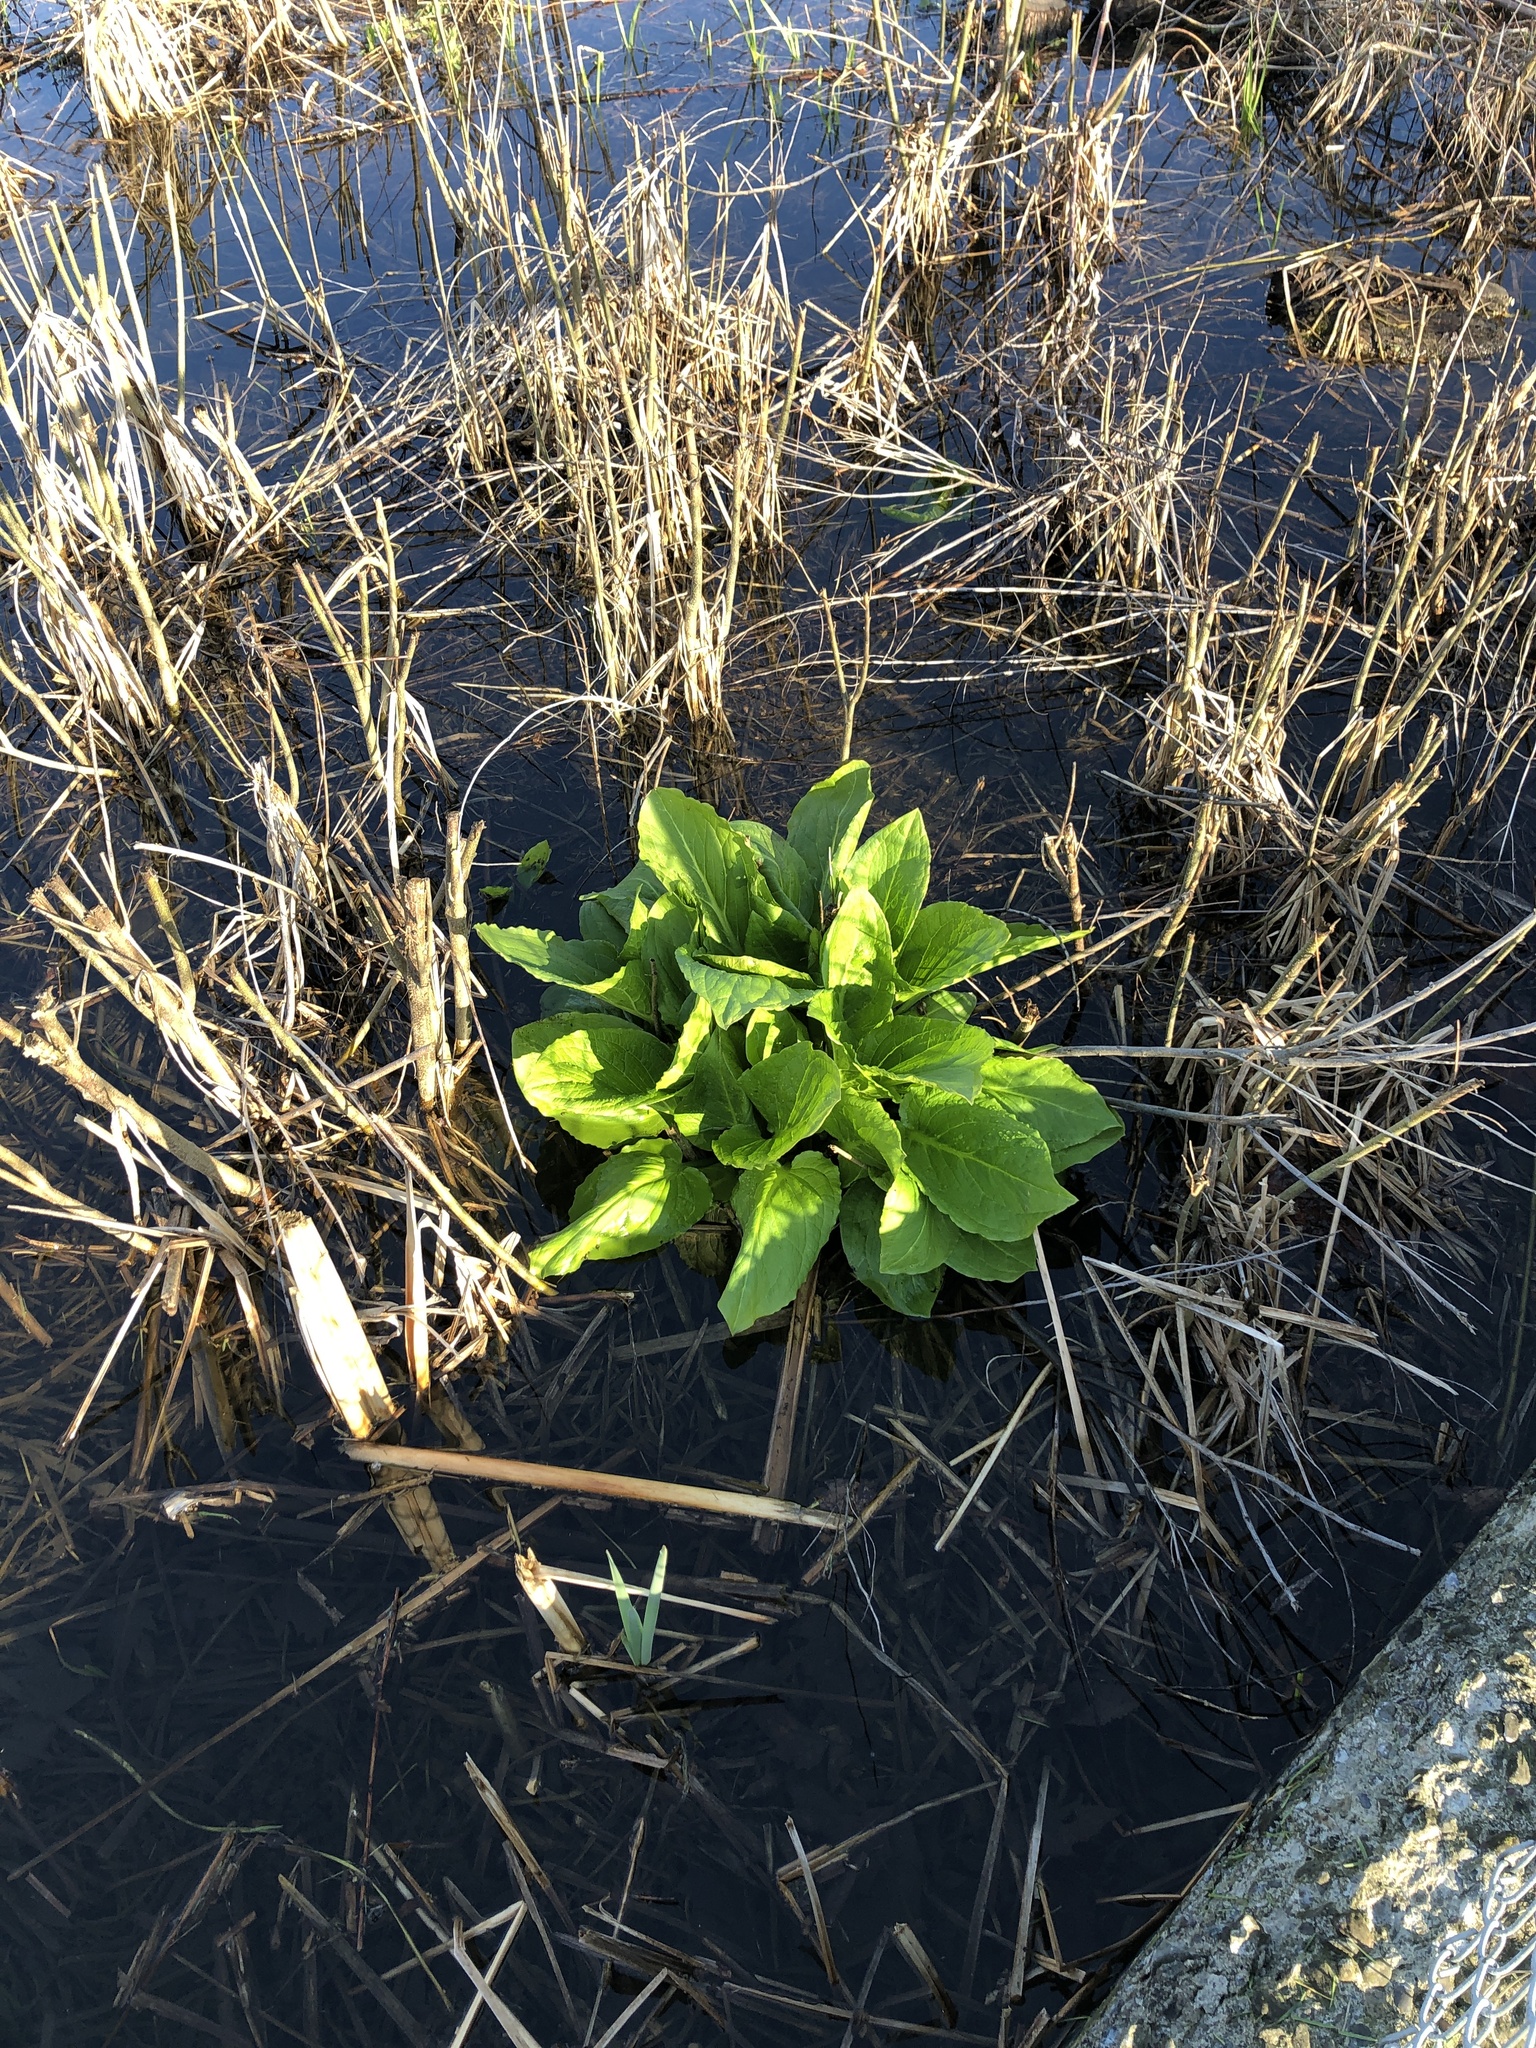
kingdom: Plantae
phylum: Tracheophyta
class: Liliopsida
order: Alismatales
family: Araceae
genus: Symplocarpus
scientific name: Symplocarpus foetidus
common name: Eastern skunk cabbage
